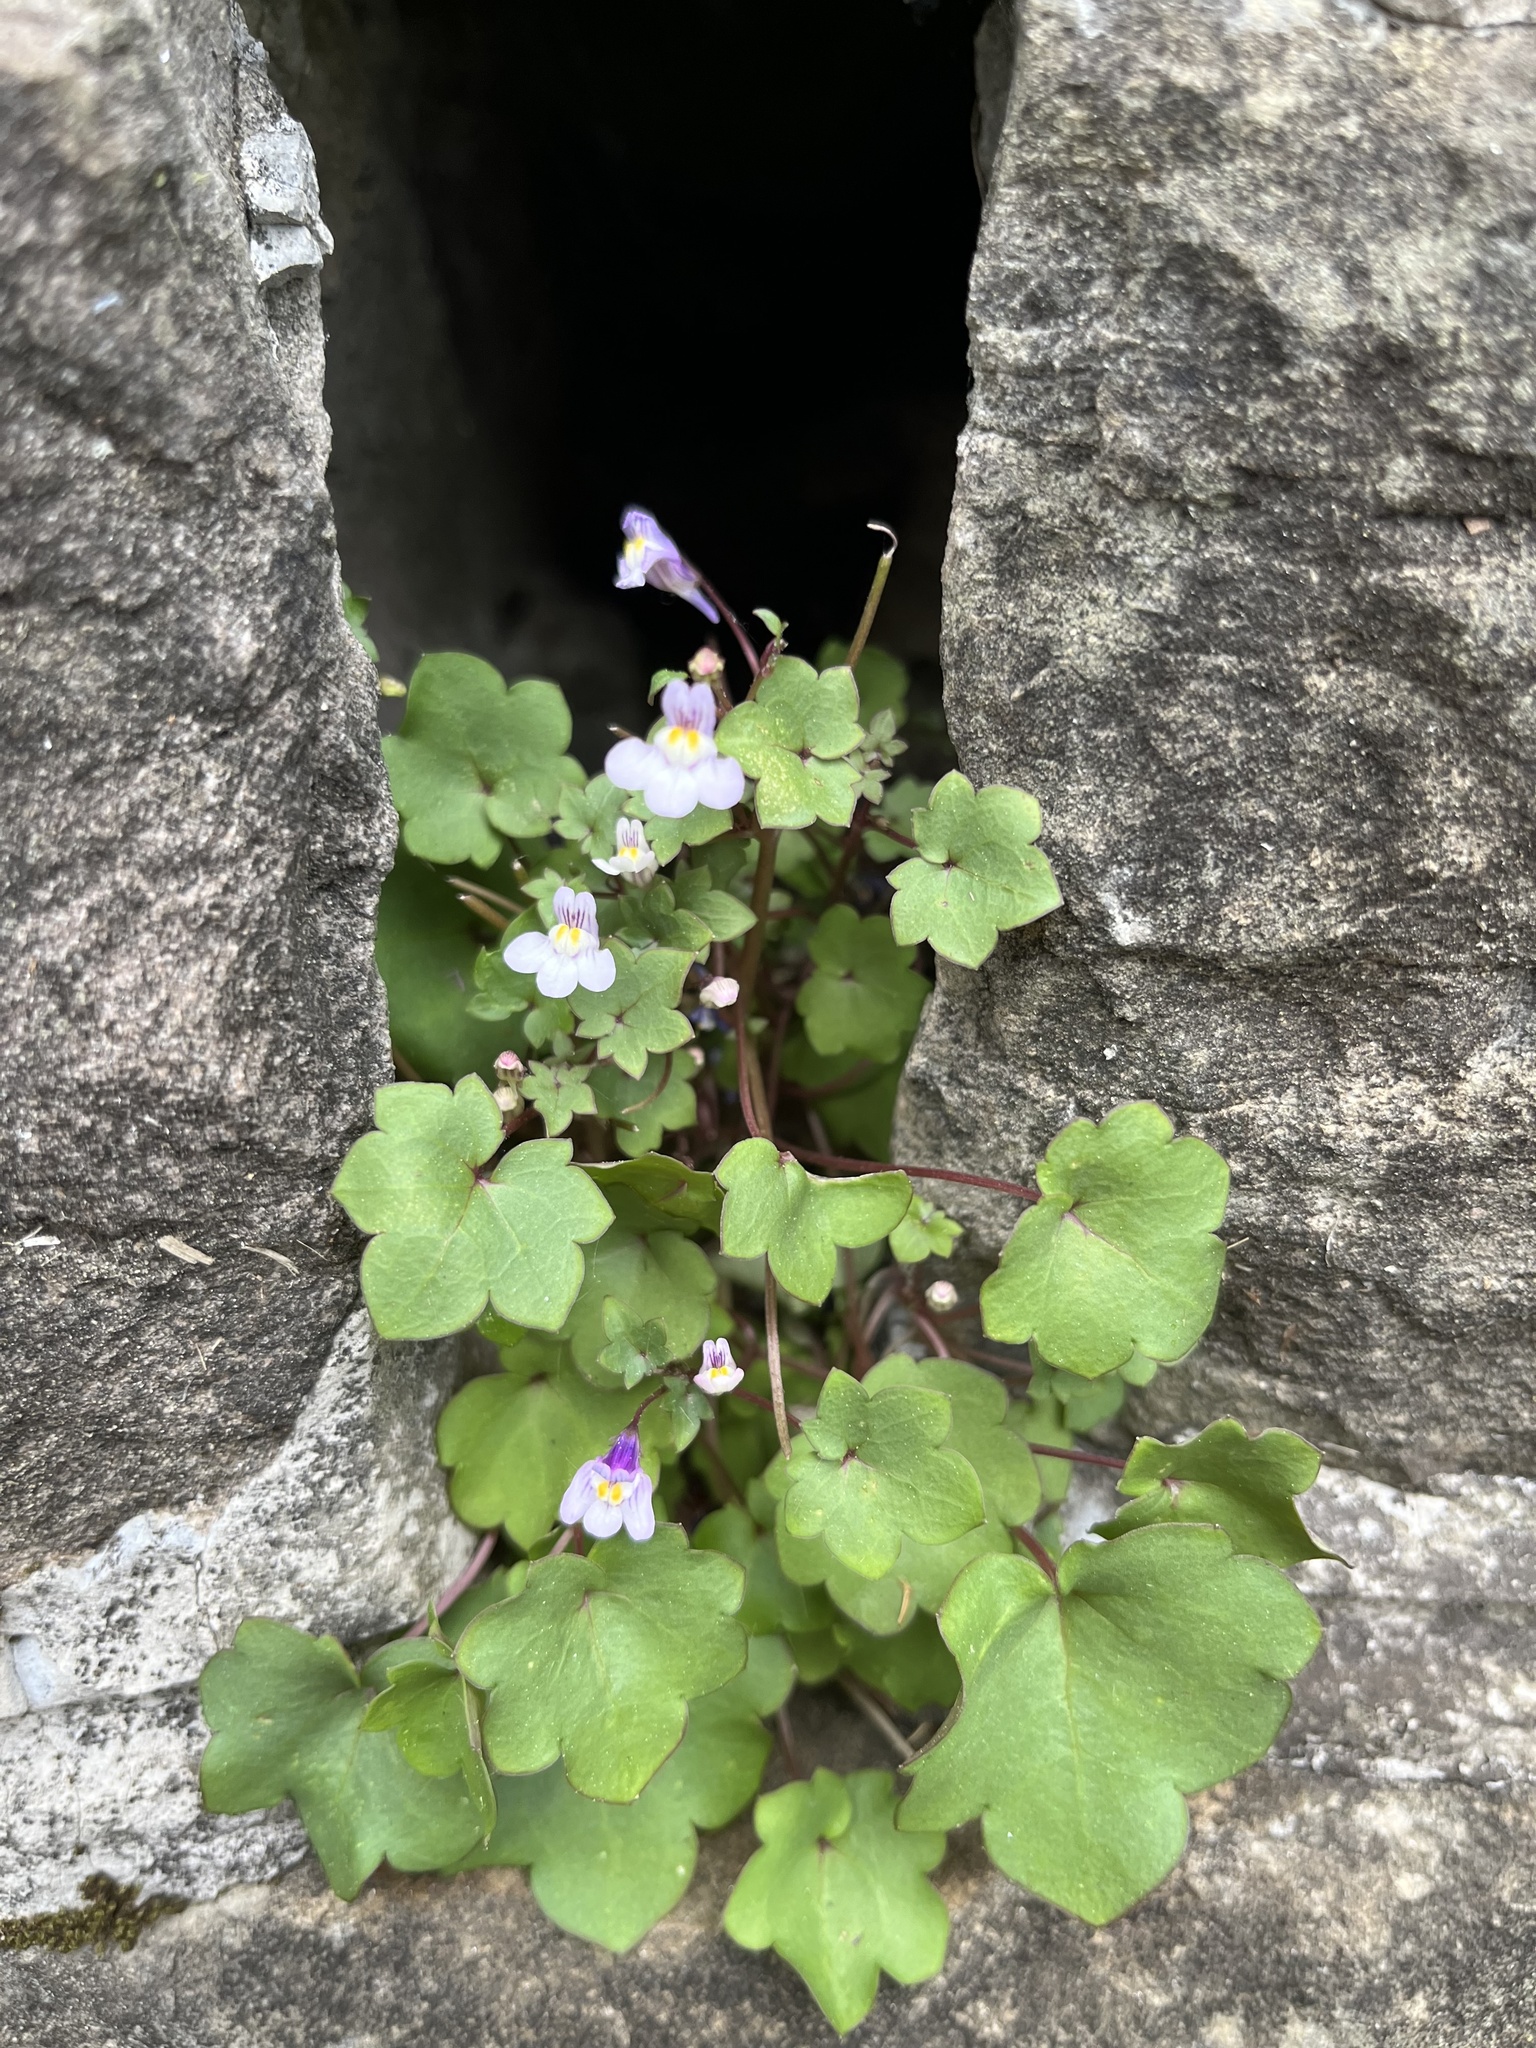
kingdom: Plantae
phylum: Tracheophyta
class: Magnoliopsida
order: Lamiales
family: Plantaginaceae
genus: Cymbalaria
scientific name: Cymbalaria muralis
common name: Ivy-leaved toadflax
